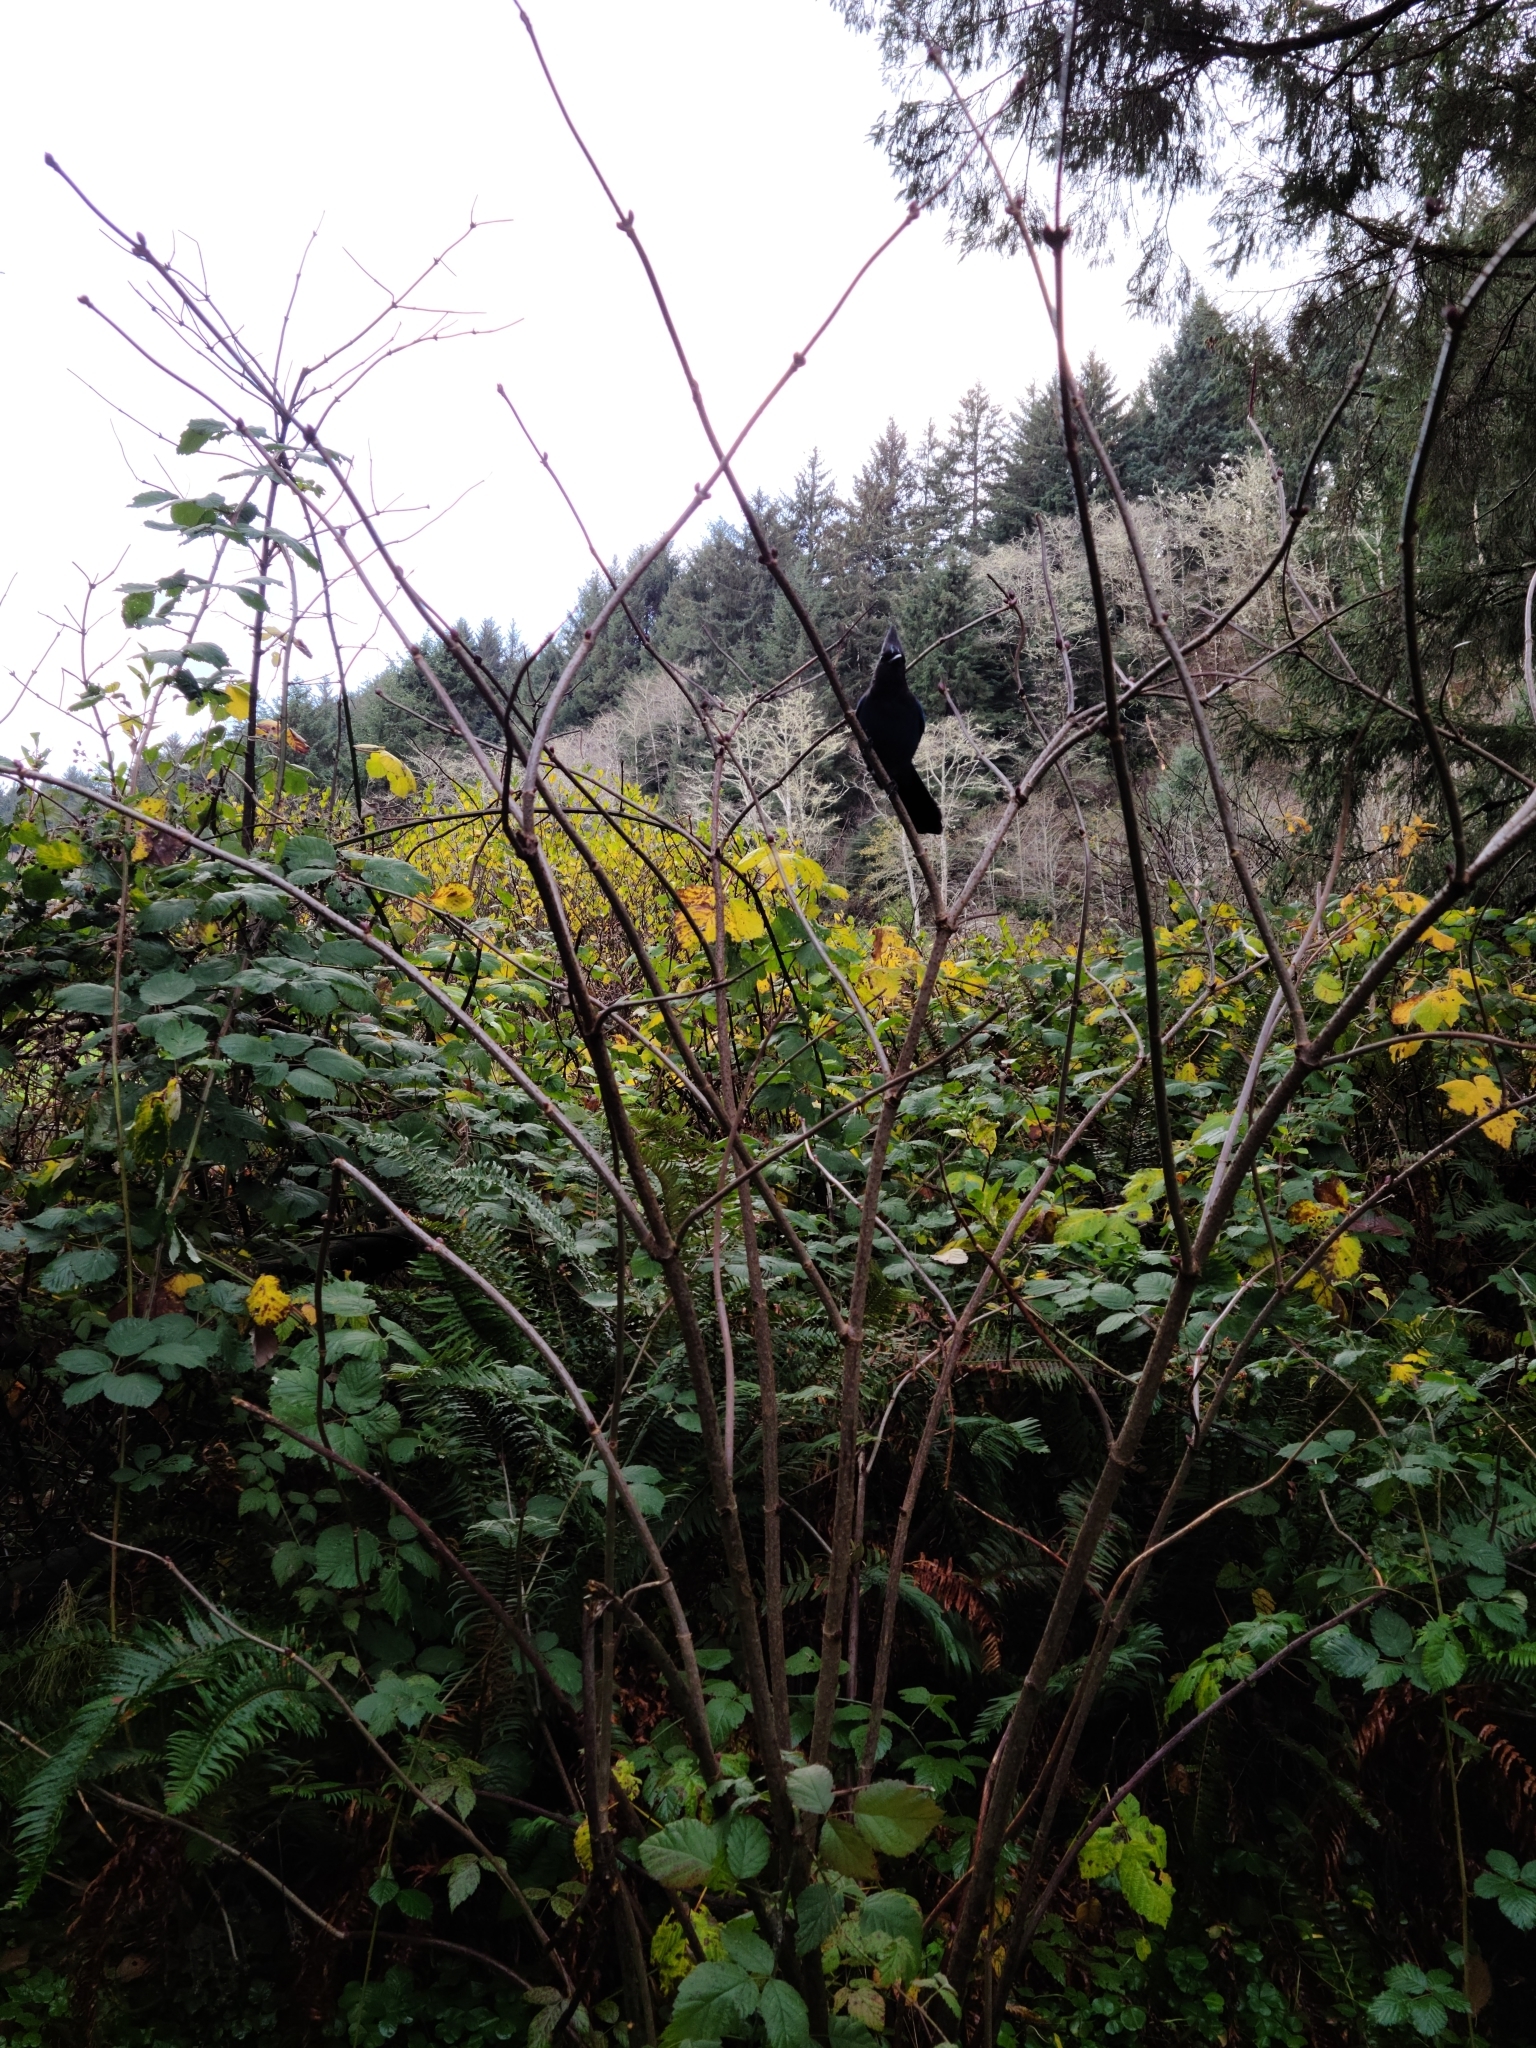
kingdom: Animalia
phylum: Chordata
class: Aves
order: Passeriformes
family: Corvidae
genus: Cyanocitta
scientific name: Cyanocitta stelleri
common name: Steller's jay
